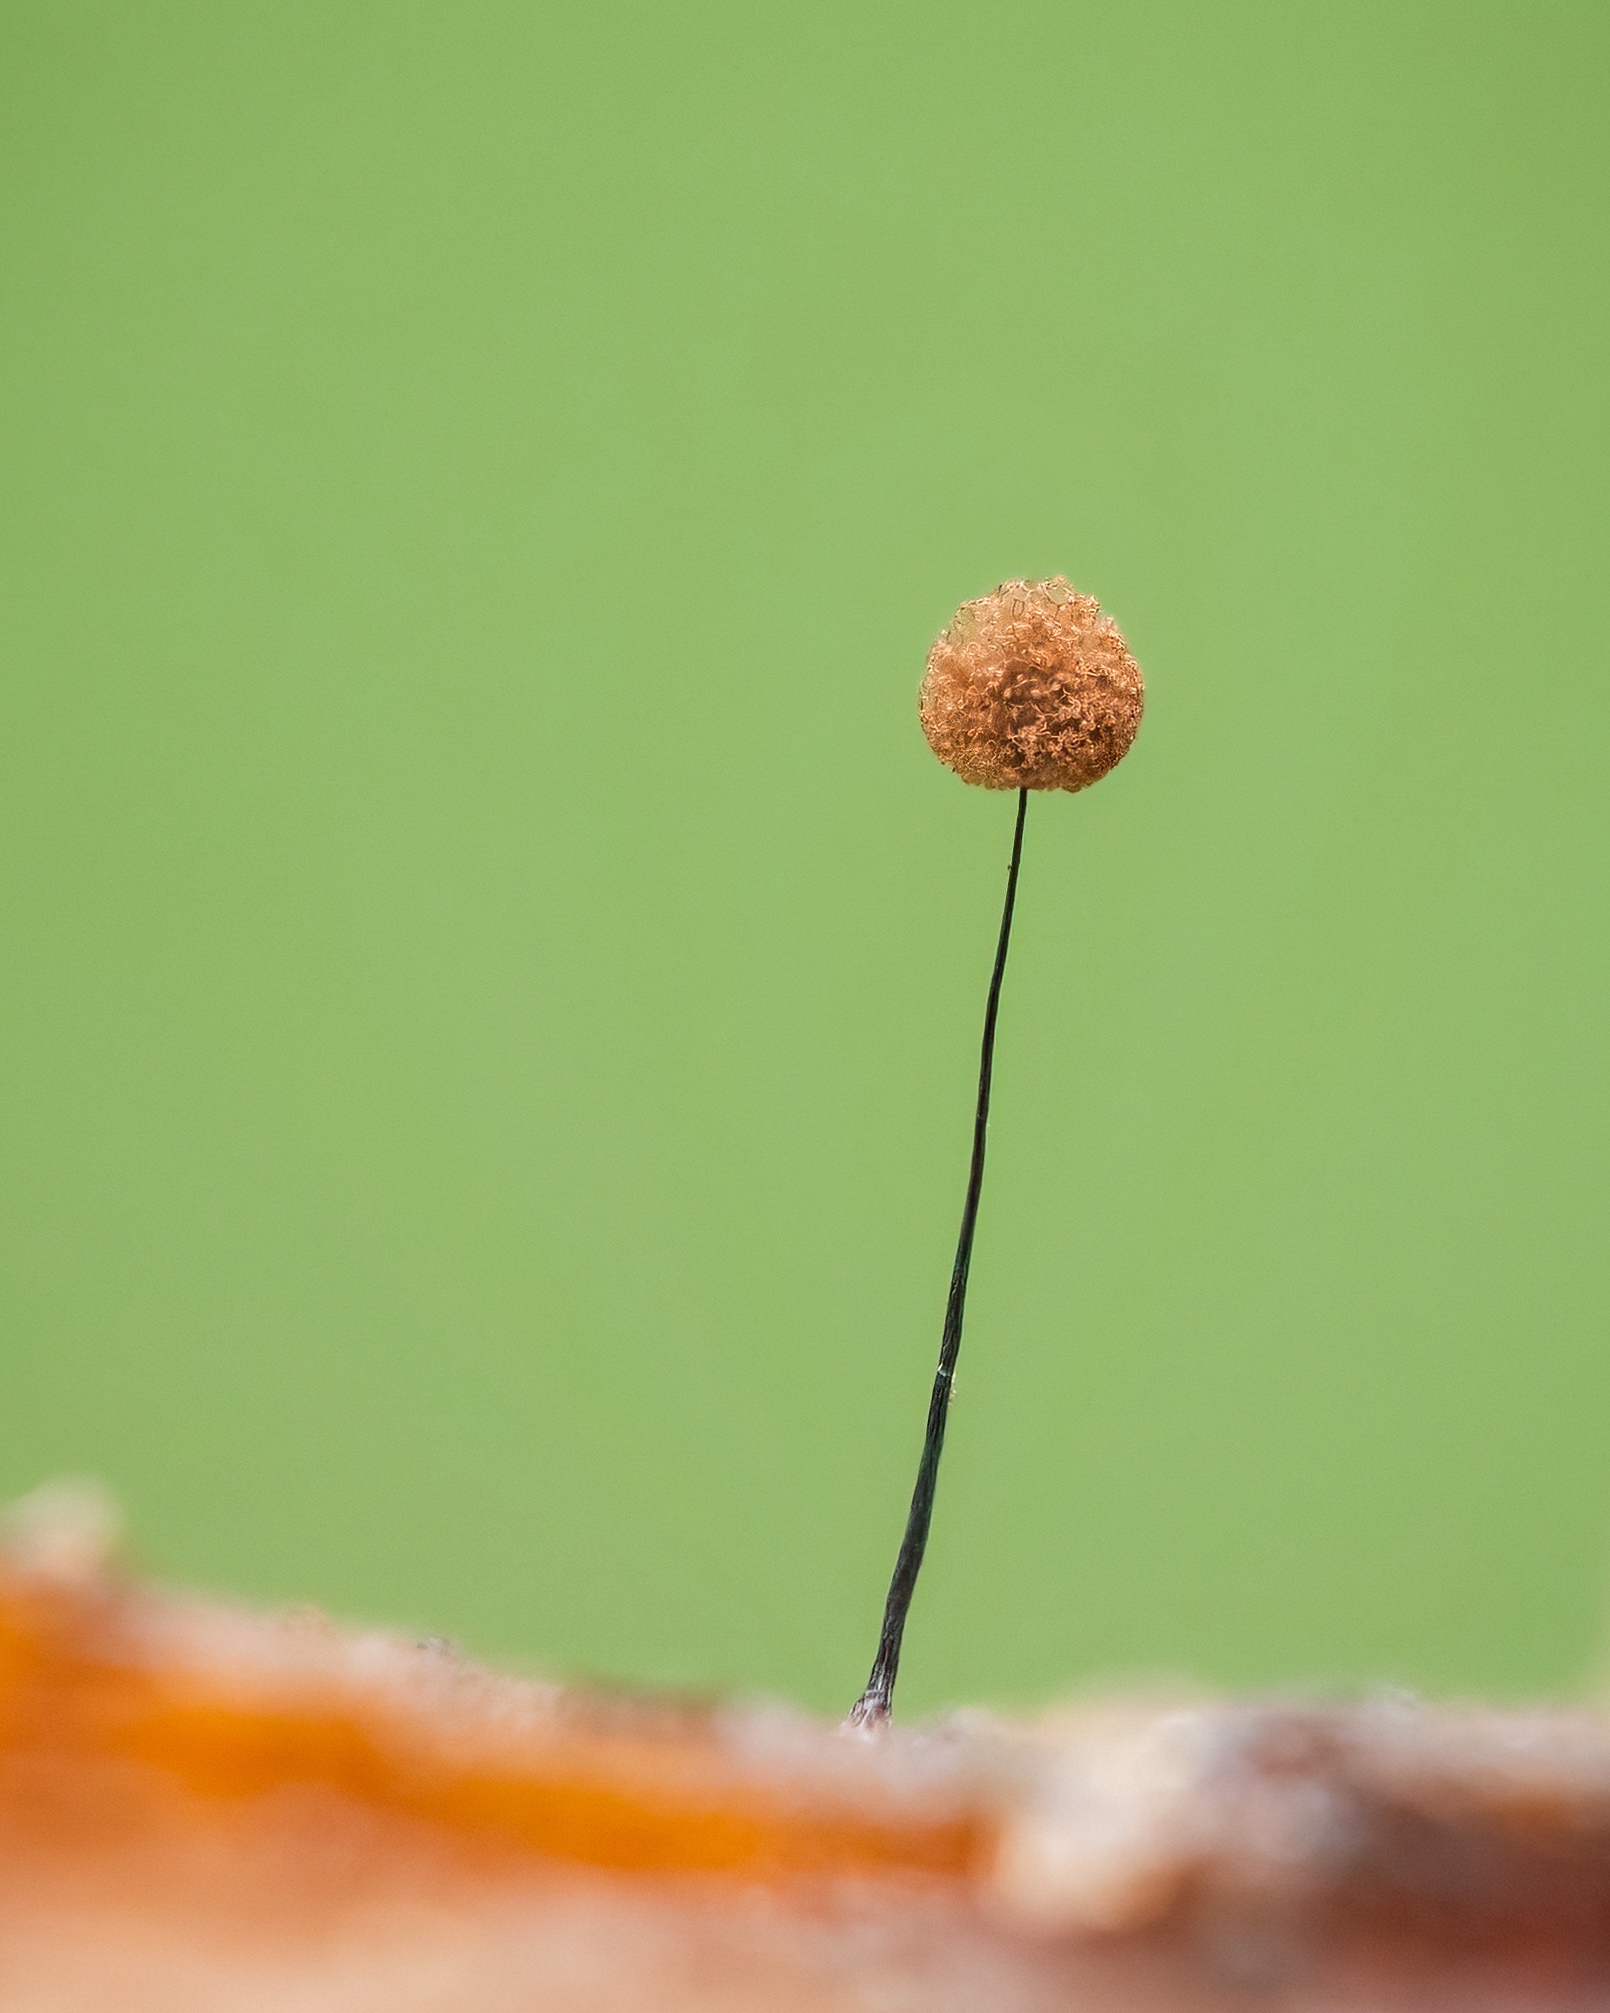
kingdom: Protozoa
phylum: Mycetozoa
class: Myxomycetes
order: Stemonitidales
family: Stemonitidaceae
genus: Comatricha
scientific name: Comatricha nigra
